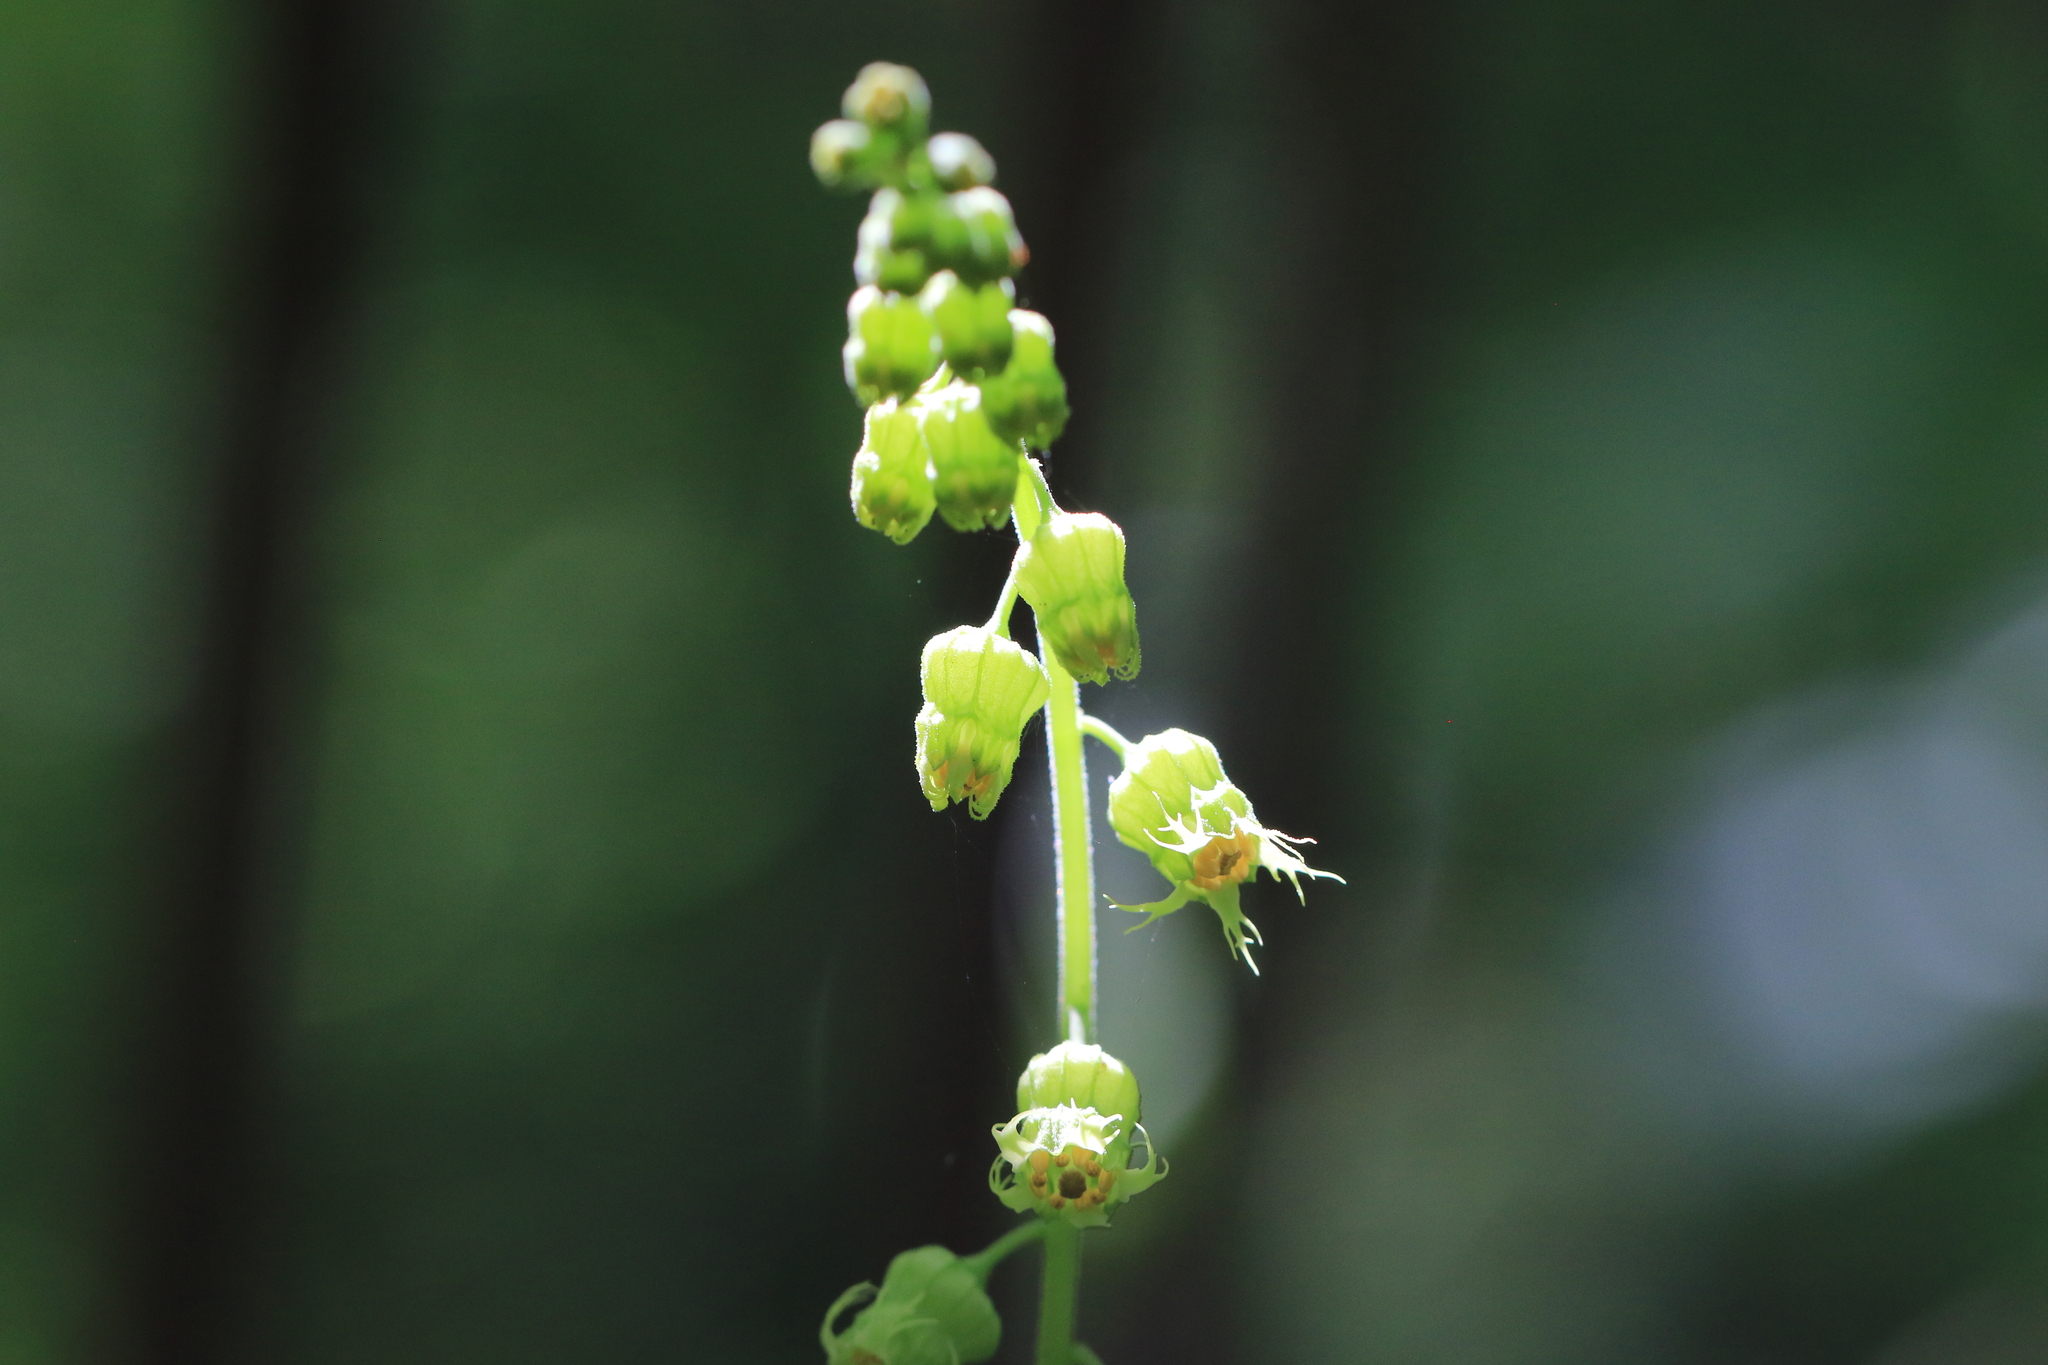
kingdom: Plantae
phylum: Tracheophyta
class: Magnoliopsida
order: Saxifragales
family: Saxifragaceae
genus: Tellima
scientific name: Tellima grandiflora
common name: Fringecups
